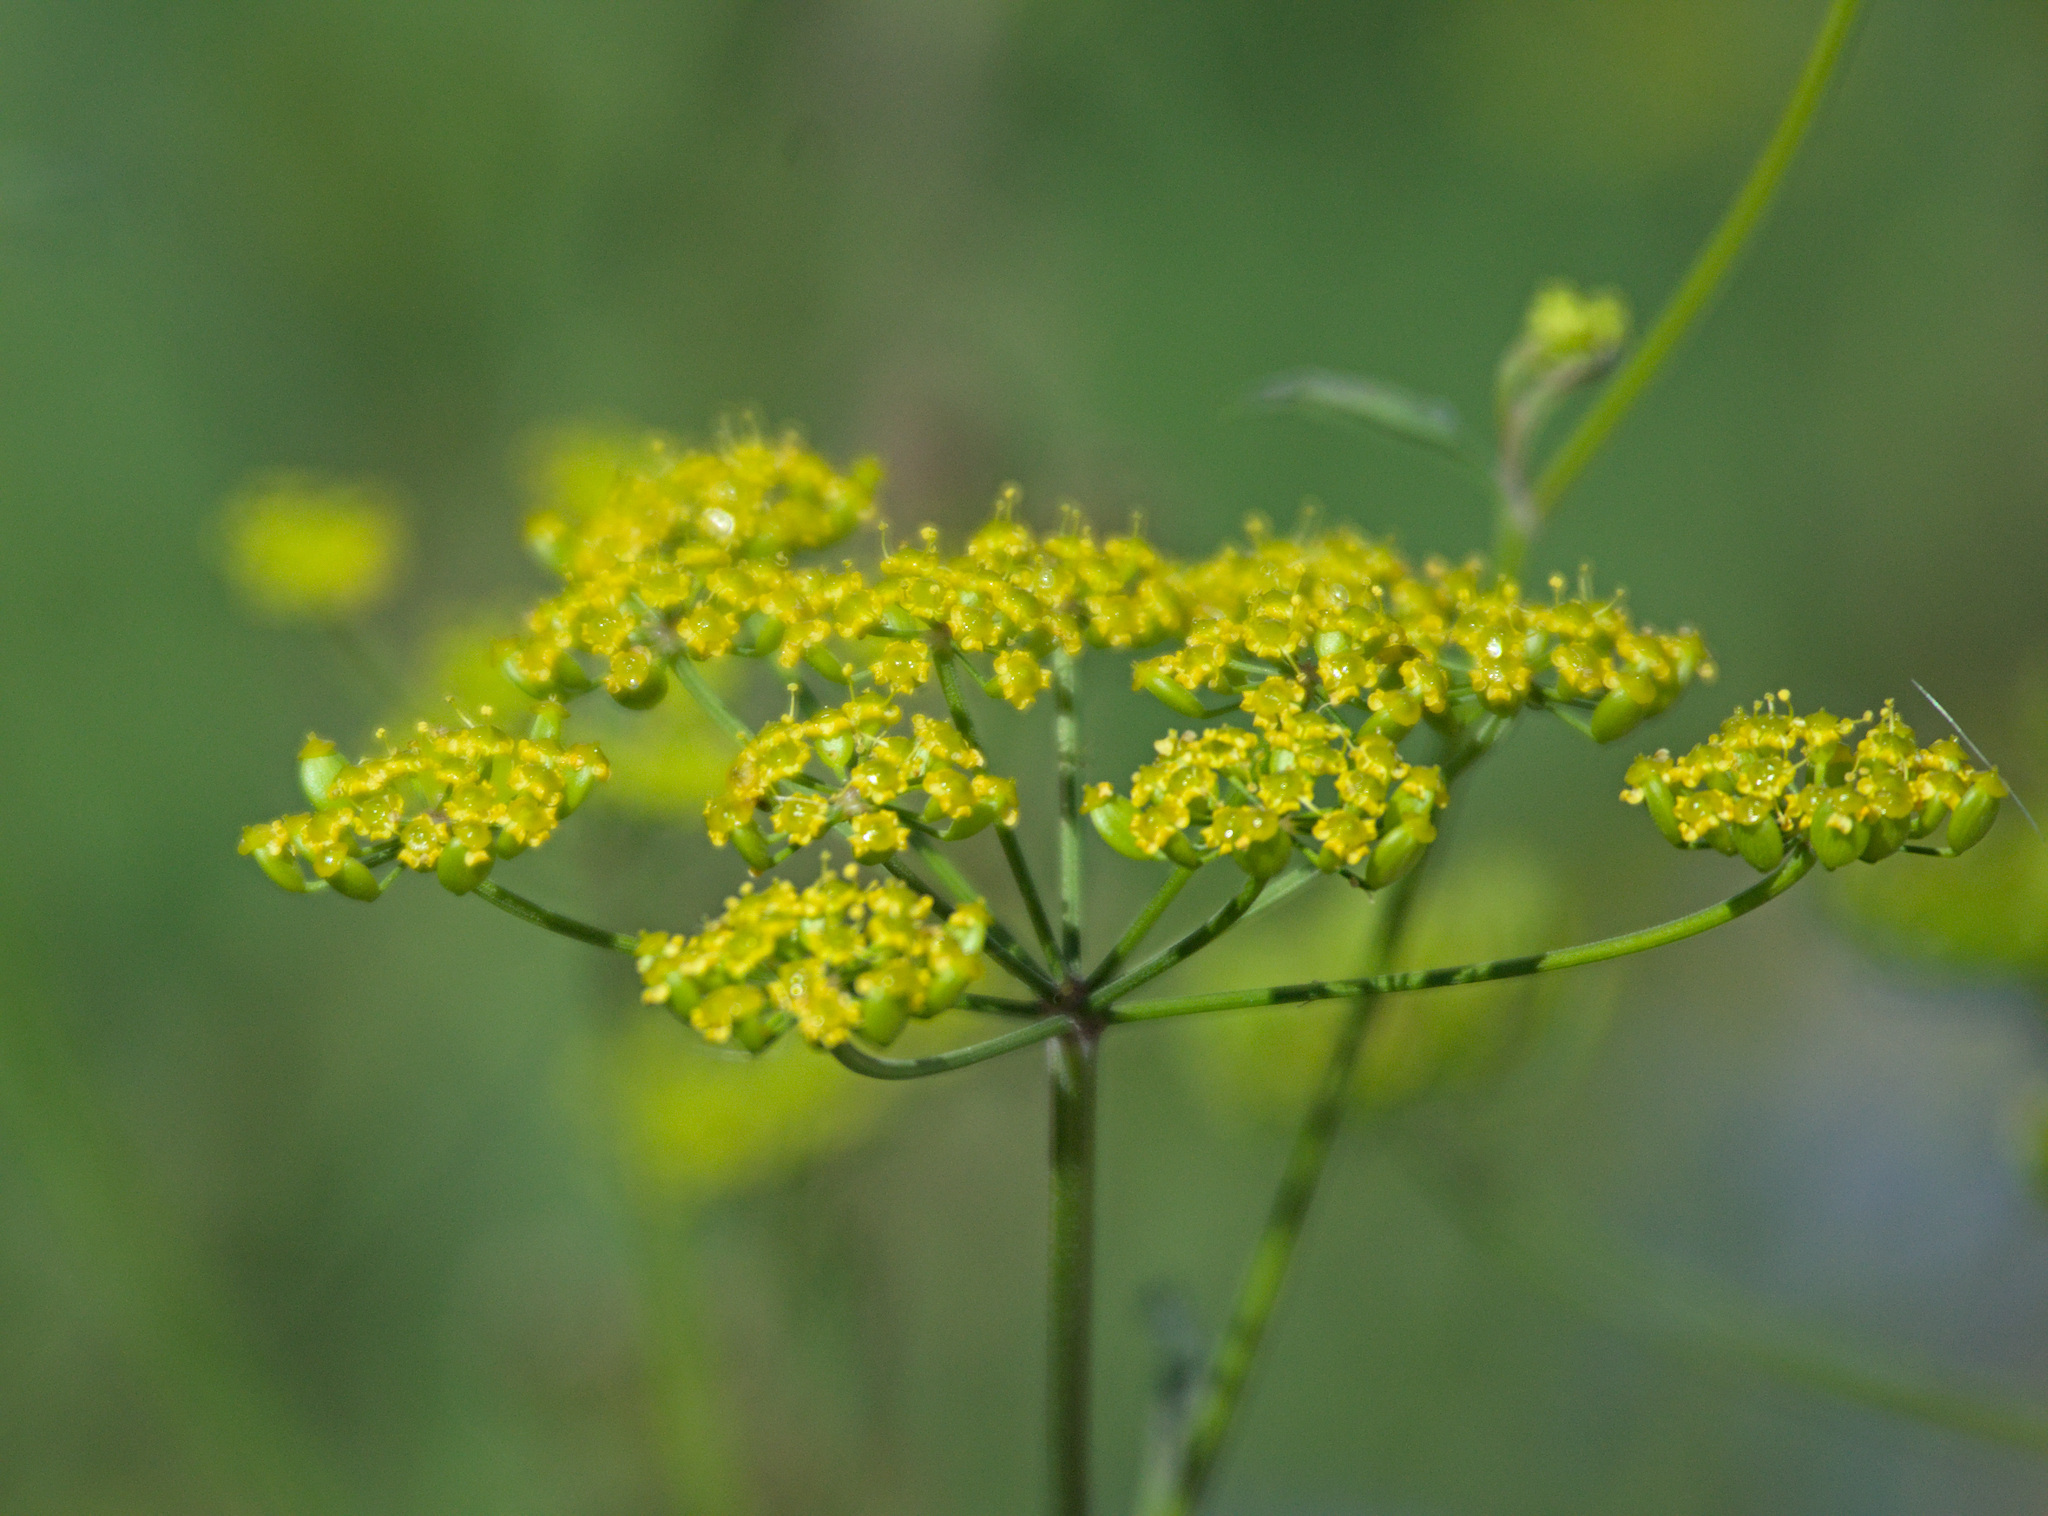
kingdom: Plantae
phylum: Tracheophyta
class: Magnoliopsida
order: Apiales
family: Apiaceae
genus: Pastinaca
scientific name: Pastinaca sativa
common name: Wild parsnip
